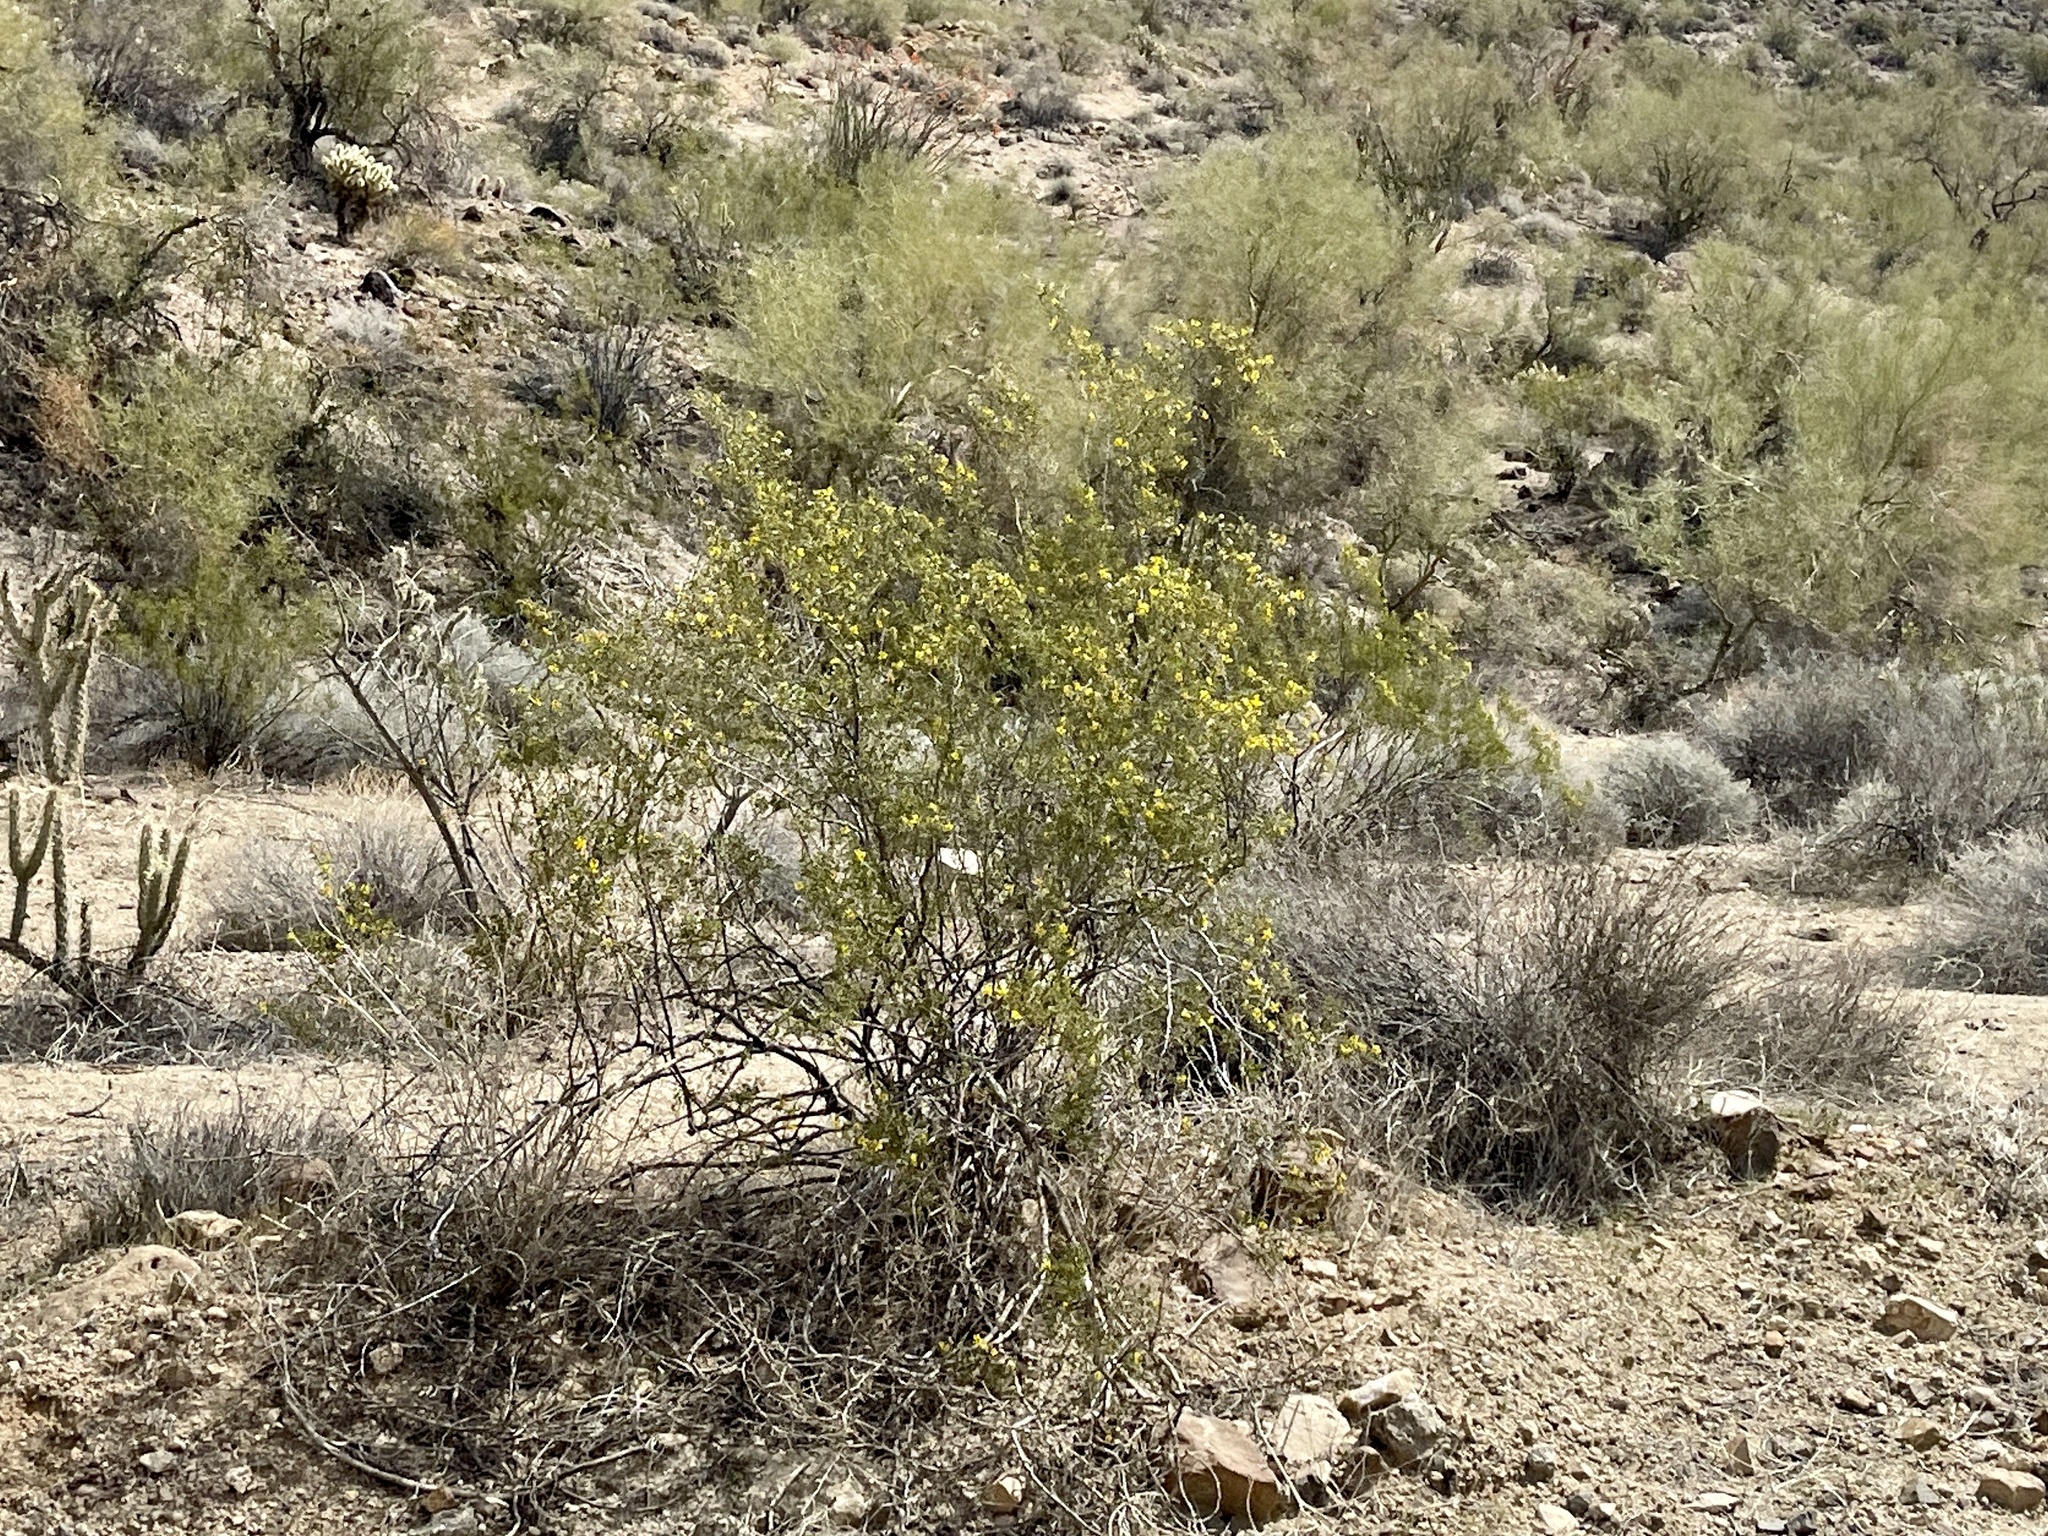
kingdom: Plantae
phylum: Tracheophyta
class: Magnoliopsida
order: Zygophyllales
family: Zygophyllaceae
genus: Larrea
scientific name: Larrea tridentata
